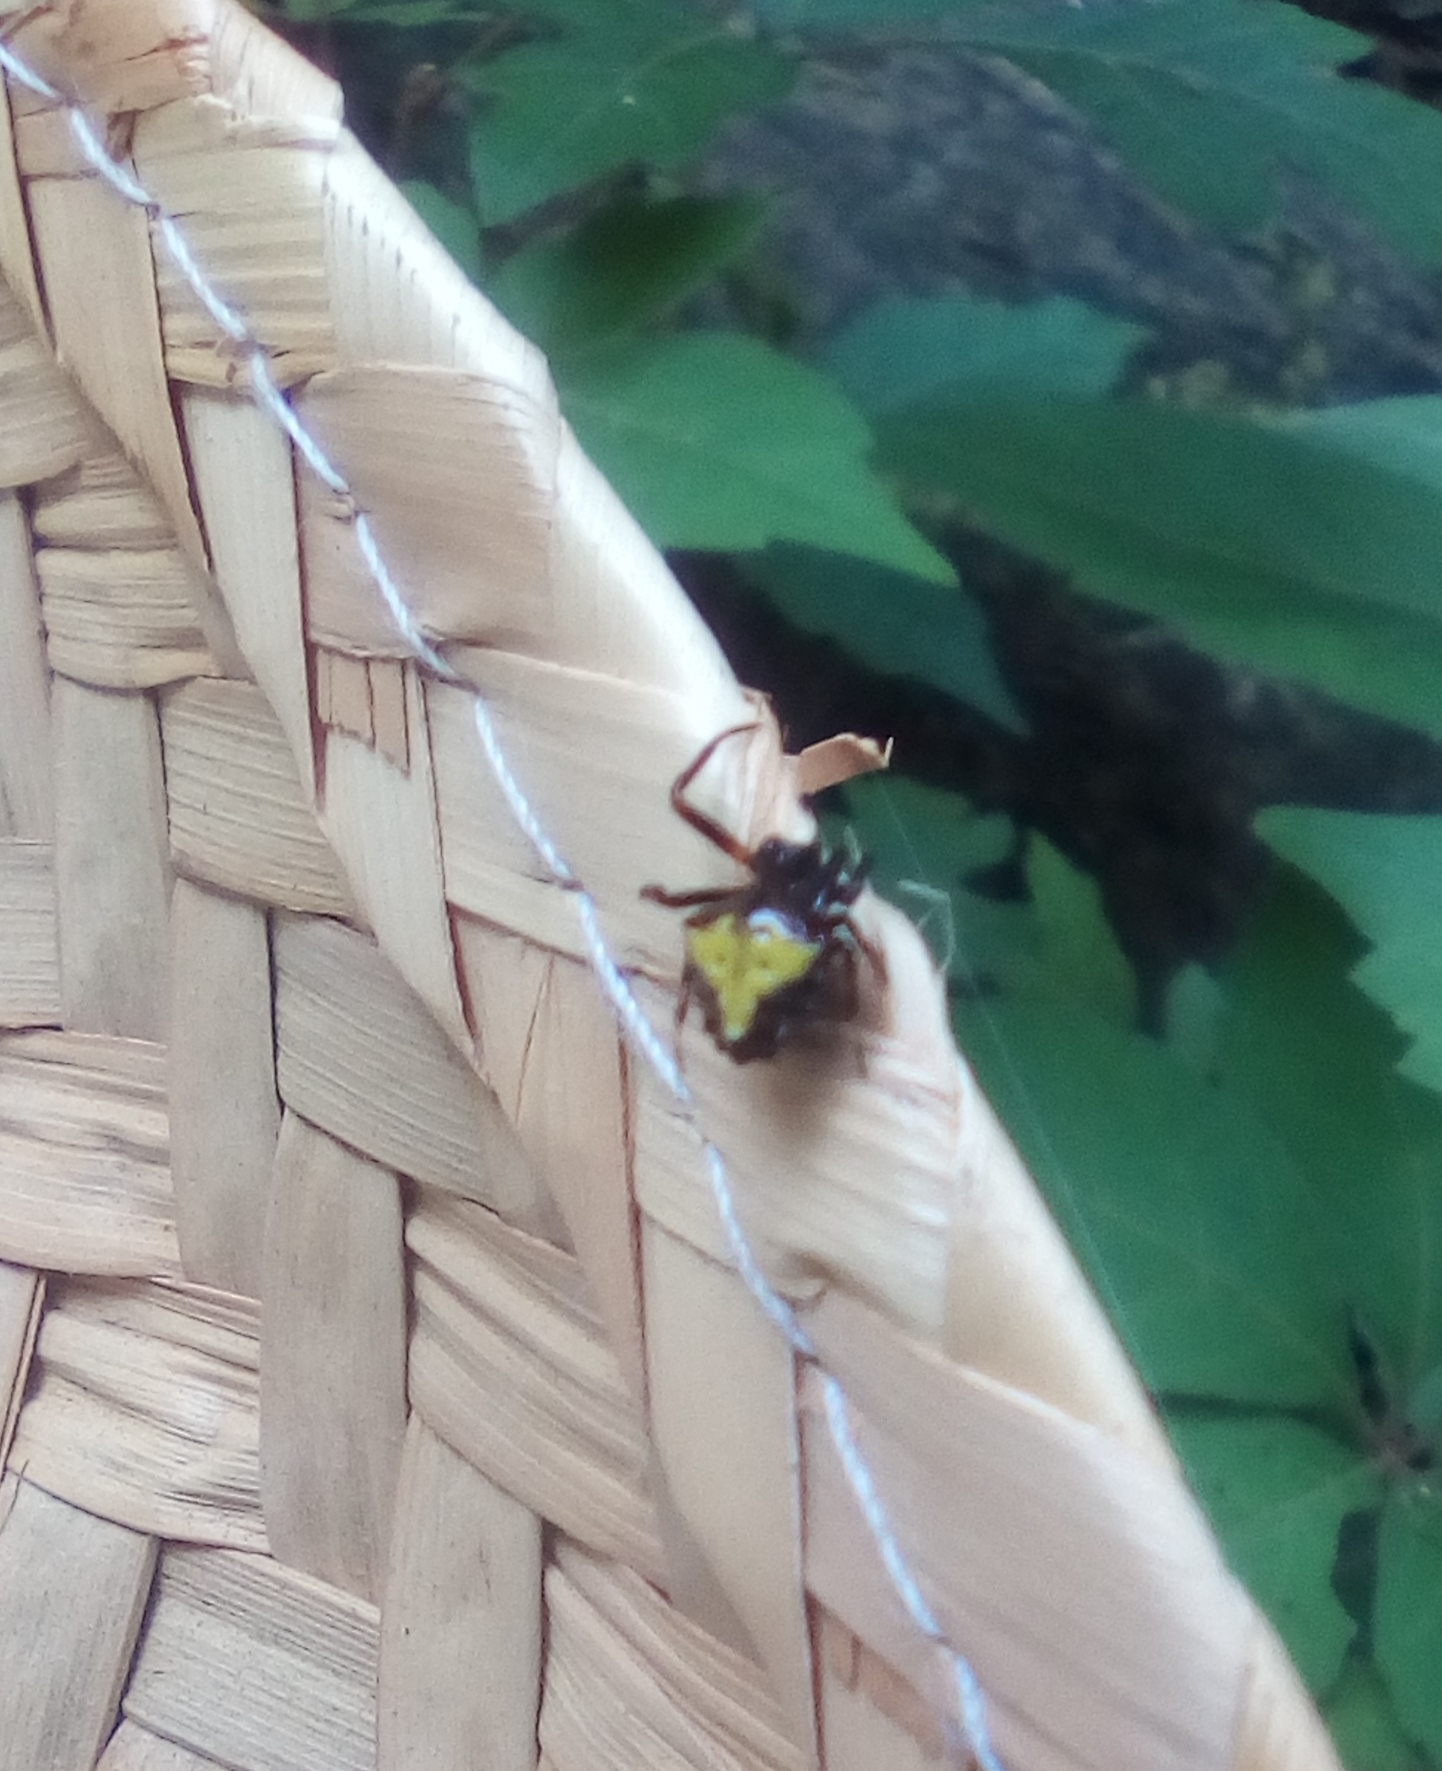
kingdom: Animalia
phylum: Arthropoda
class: Arachnida
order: Araneae
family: Araneidae
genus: Verrucosa
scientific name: Verrucosa arenata
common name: Orb weavers
